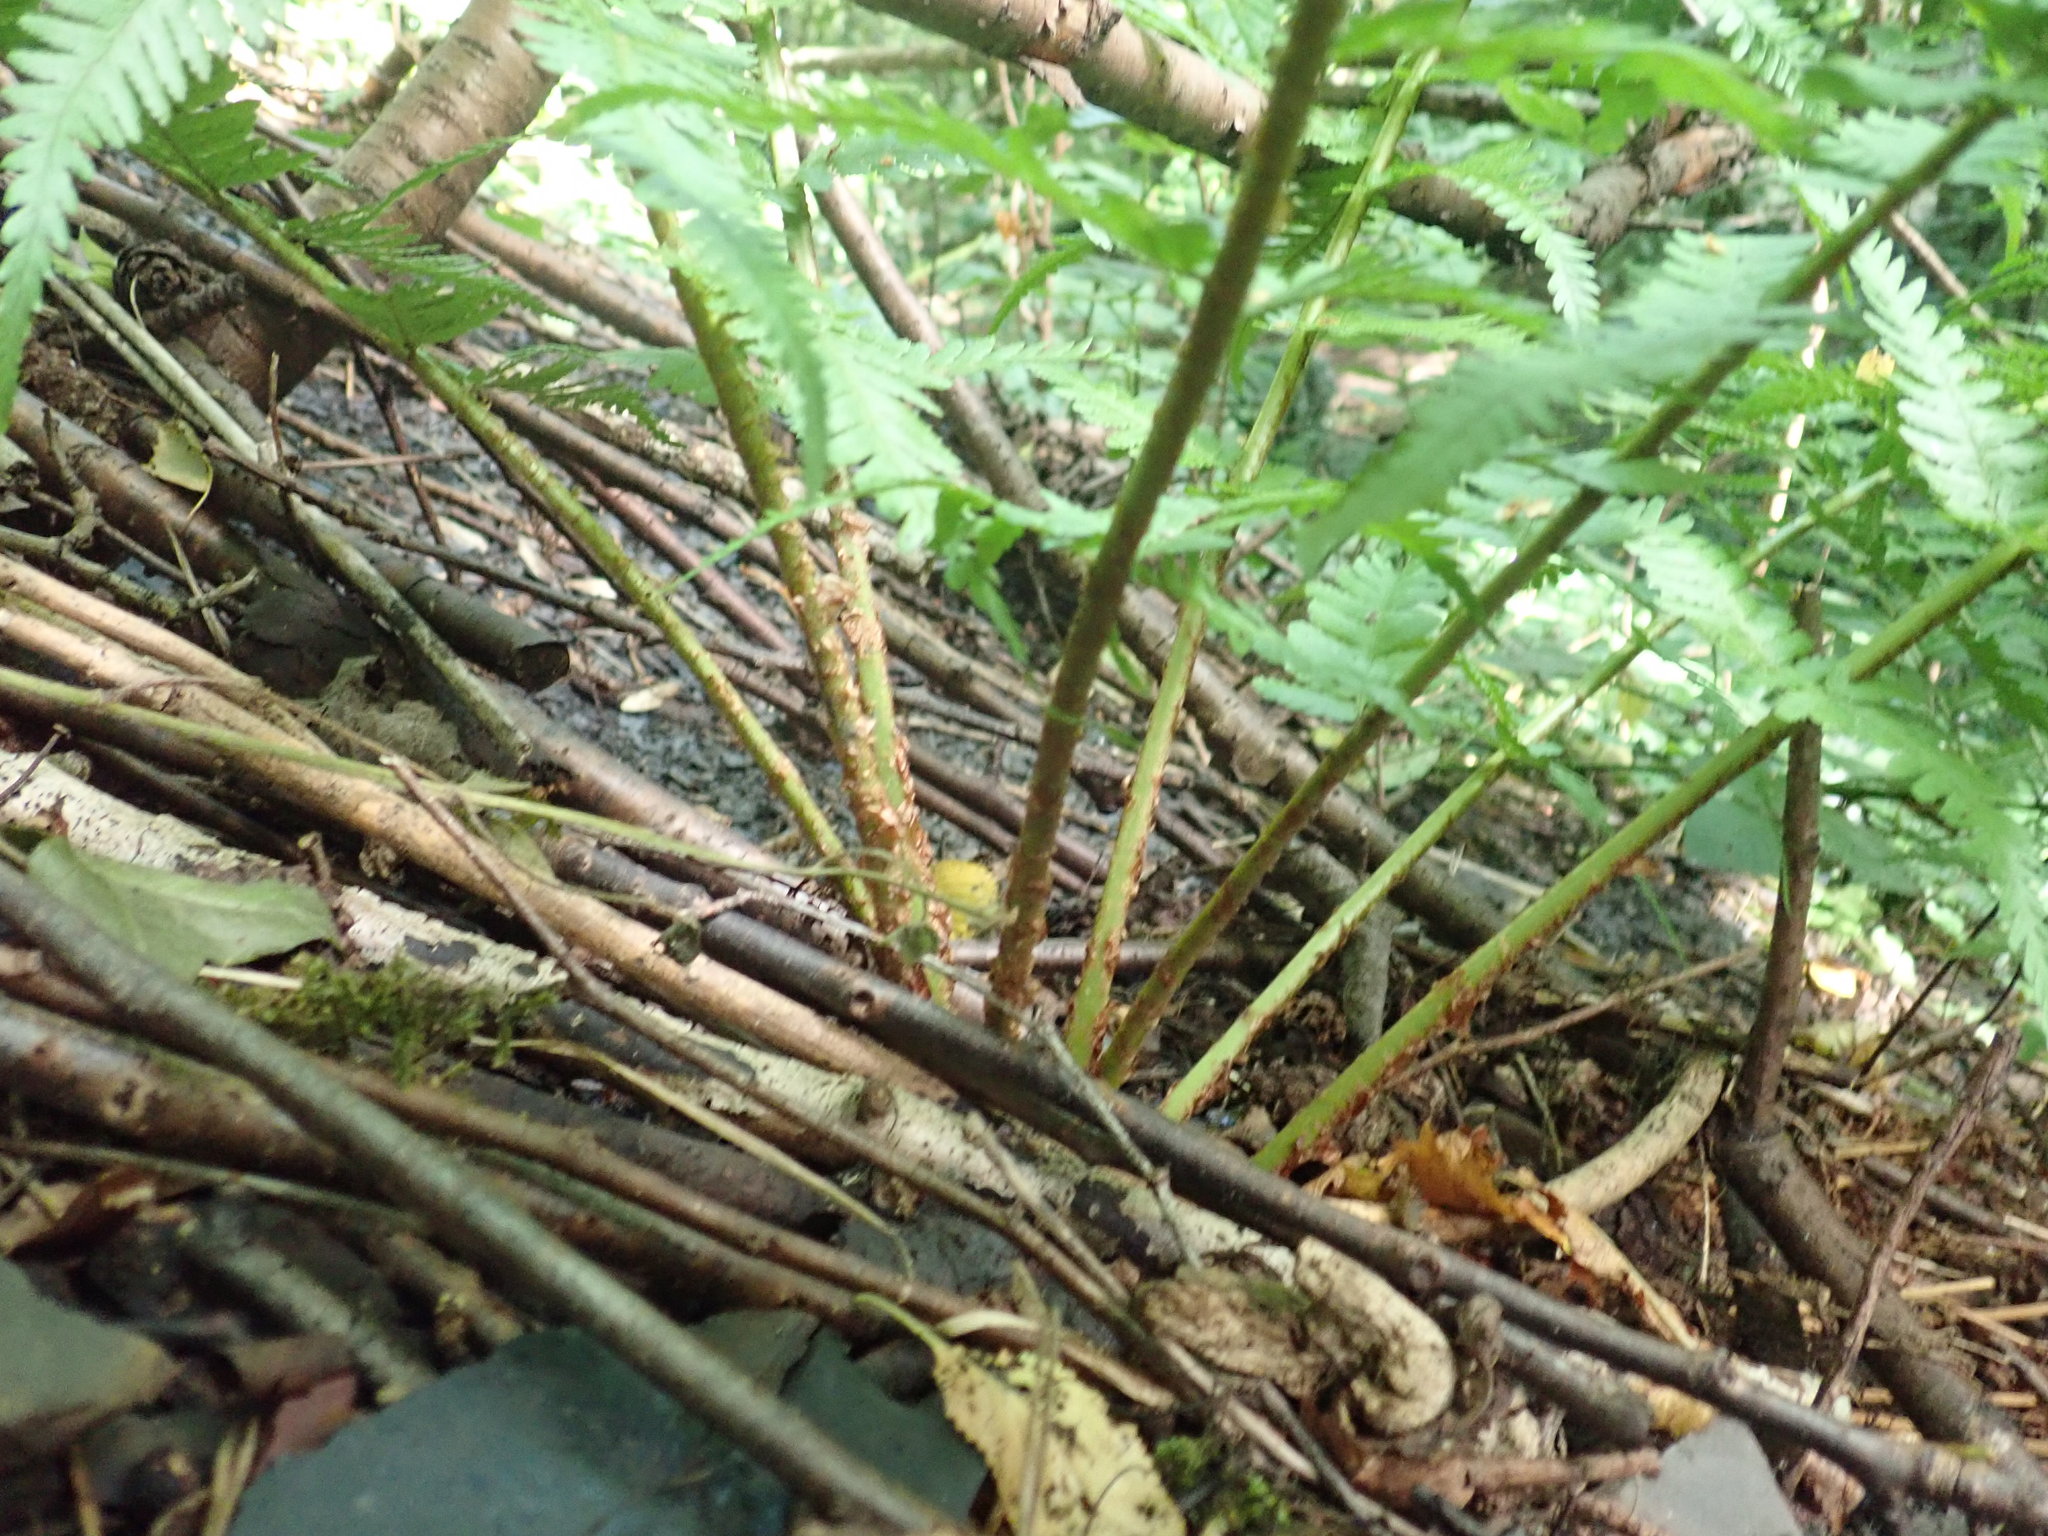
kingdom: Plantae
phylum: Tracheophyta
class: Polypodiopsida
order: Polypodiales
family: Dryopteridaceae
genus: Dryopteris
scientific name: Dryopteris filix-mas
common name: Male fern
